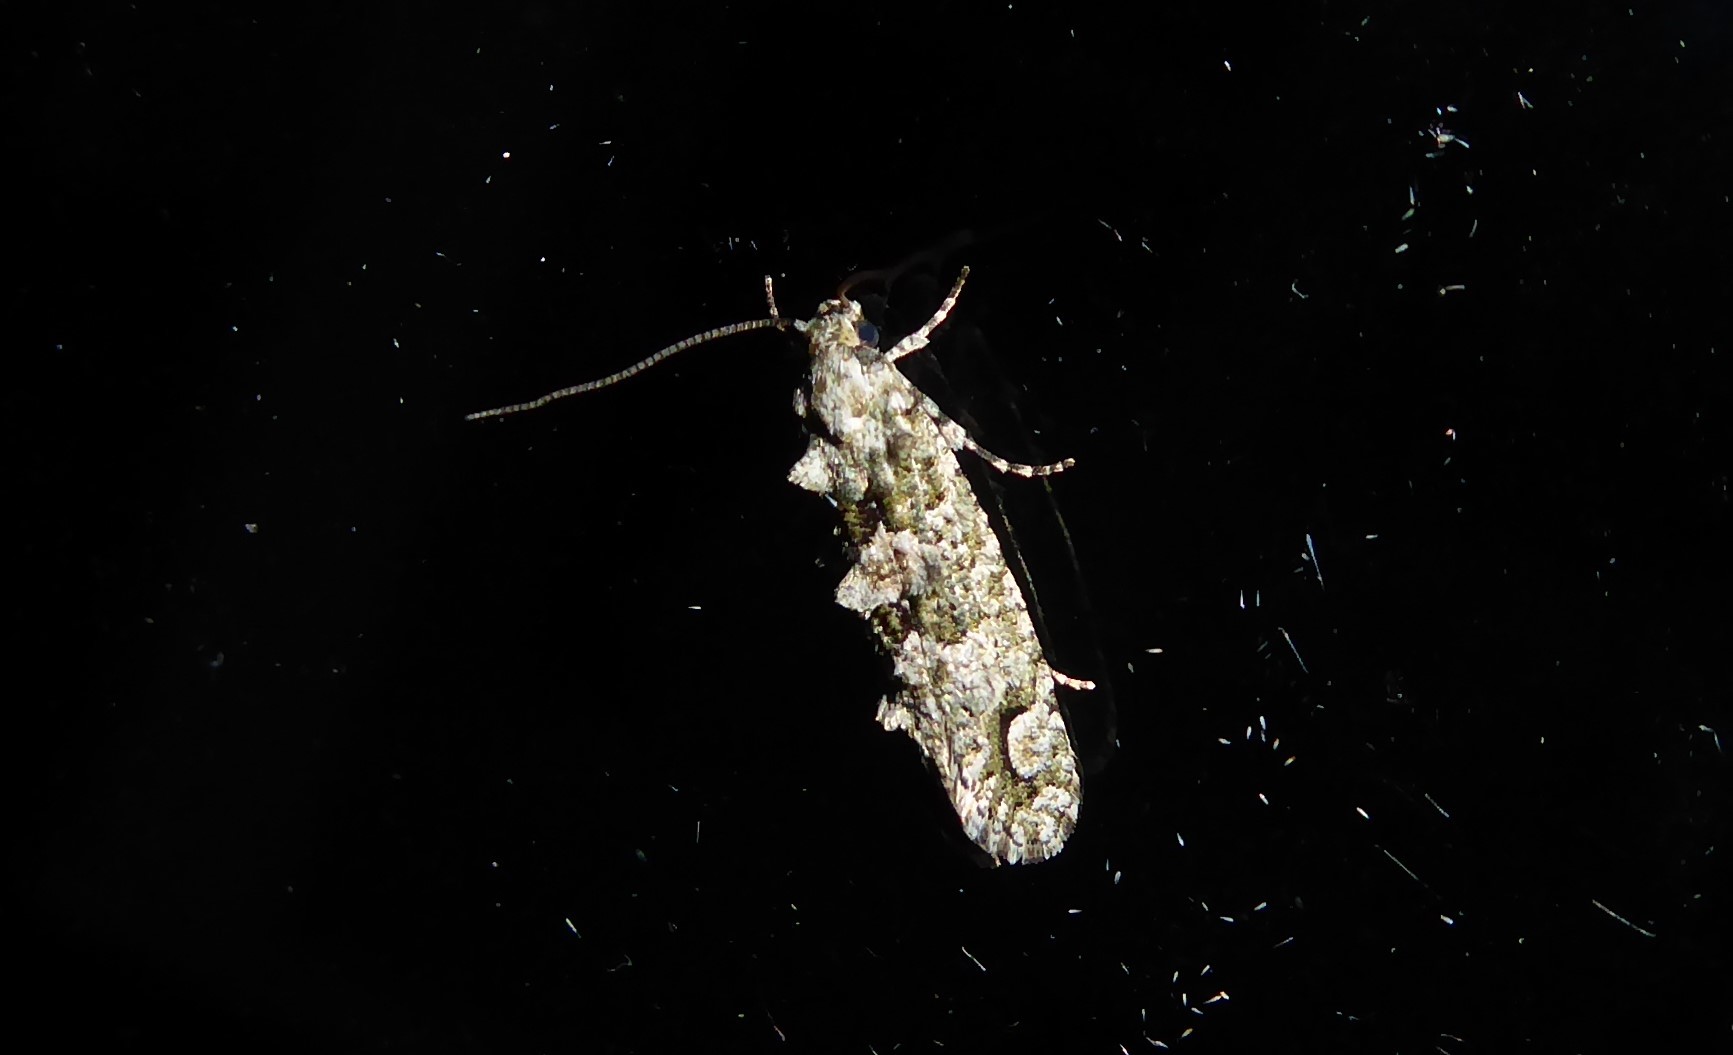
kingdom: Animalia
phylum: Arthropoda
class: Insecta
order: Lepidoptera
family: Tineidae
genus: Lysiphragma
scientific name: Lysiphragma howesii
